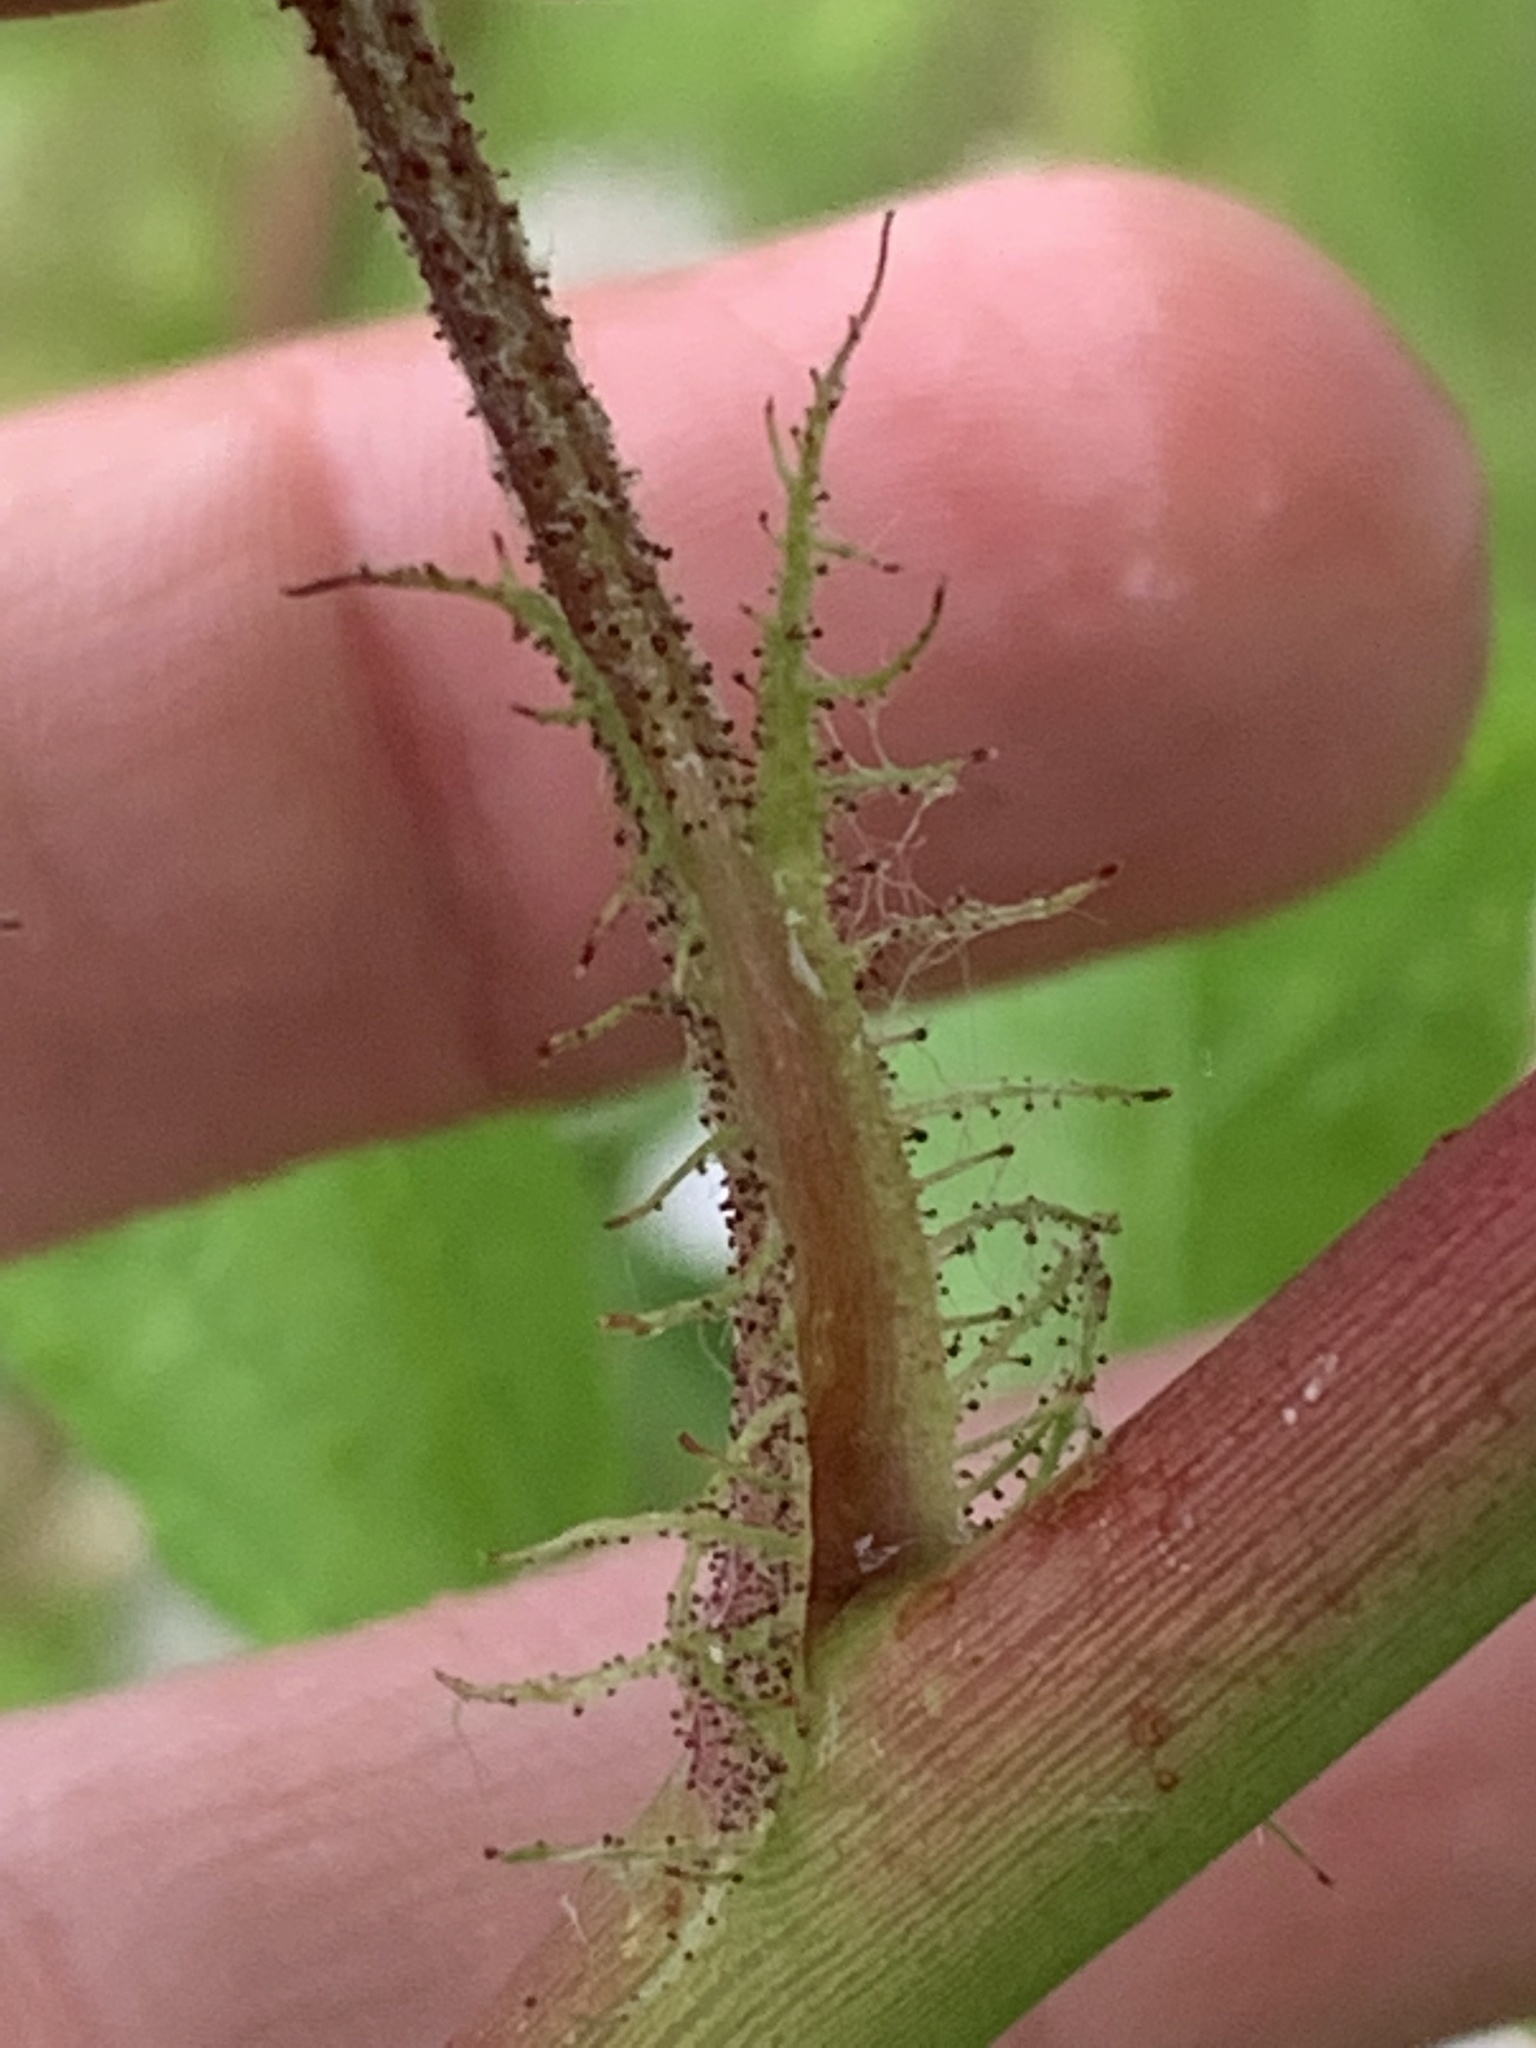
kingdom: Plantae
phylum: Tracheophyta
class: Magnoliopsida
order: Rosales
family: Rosaceae
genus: Rosa
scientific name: Rosa multiflora
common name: Multiflora rose
